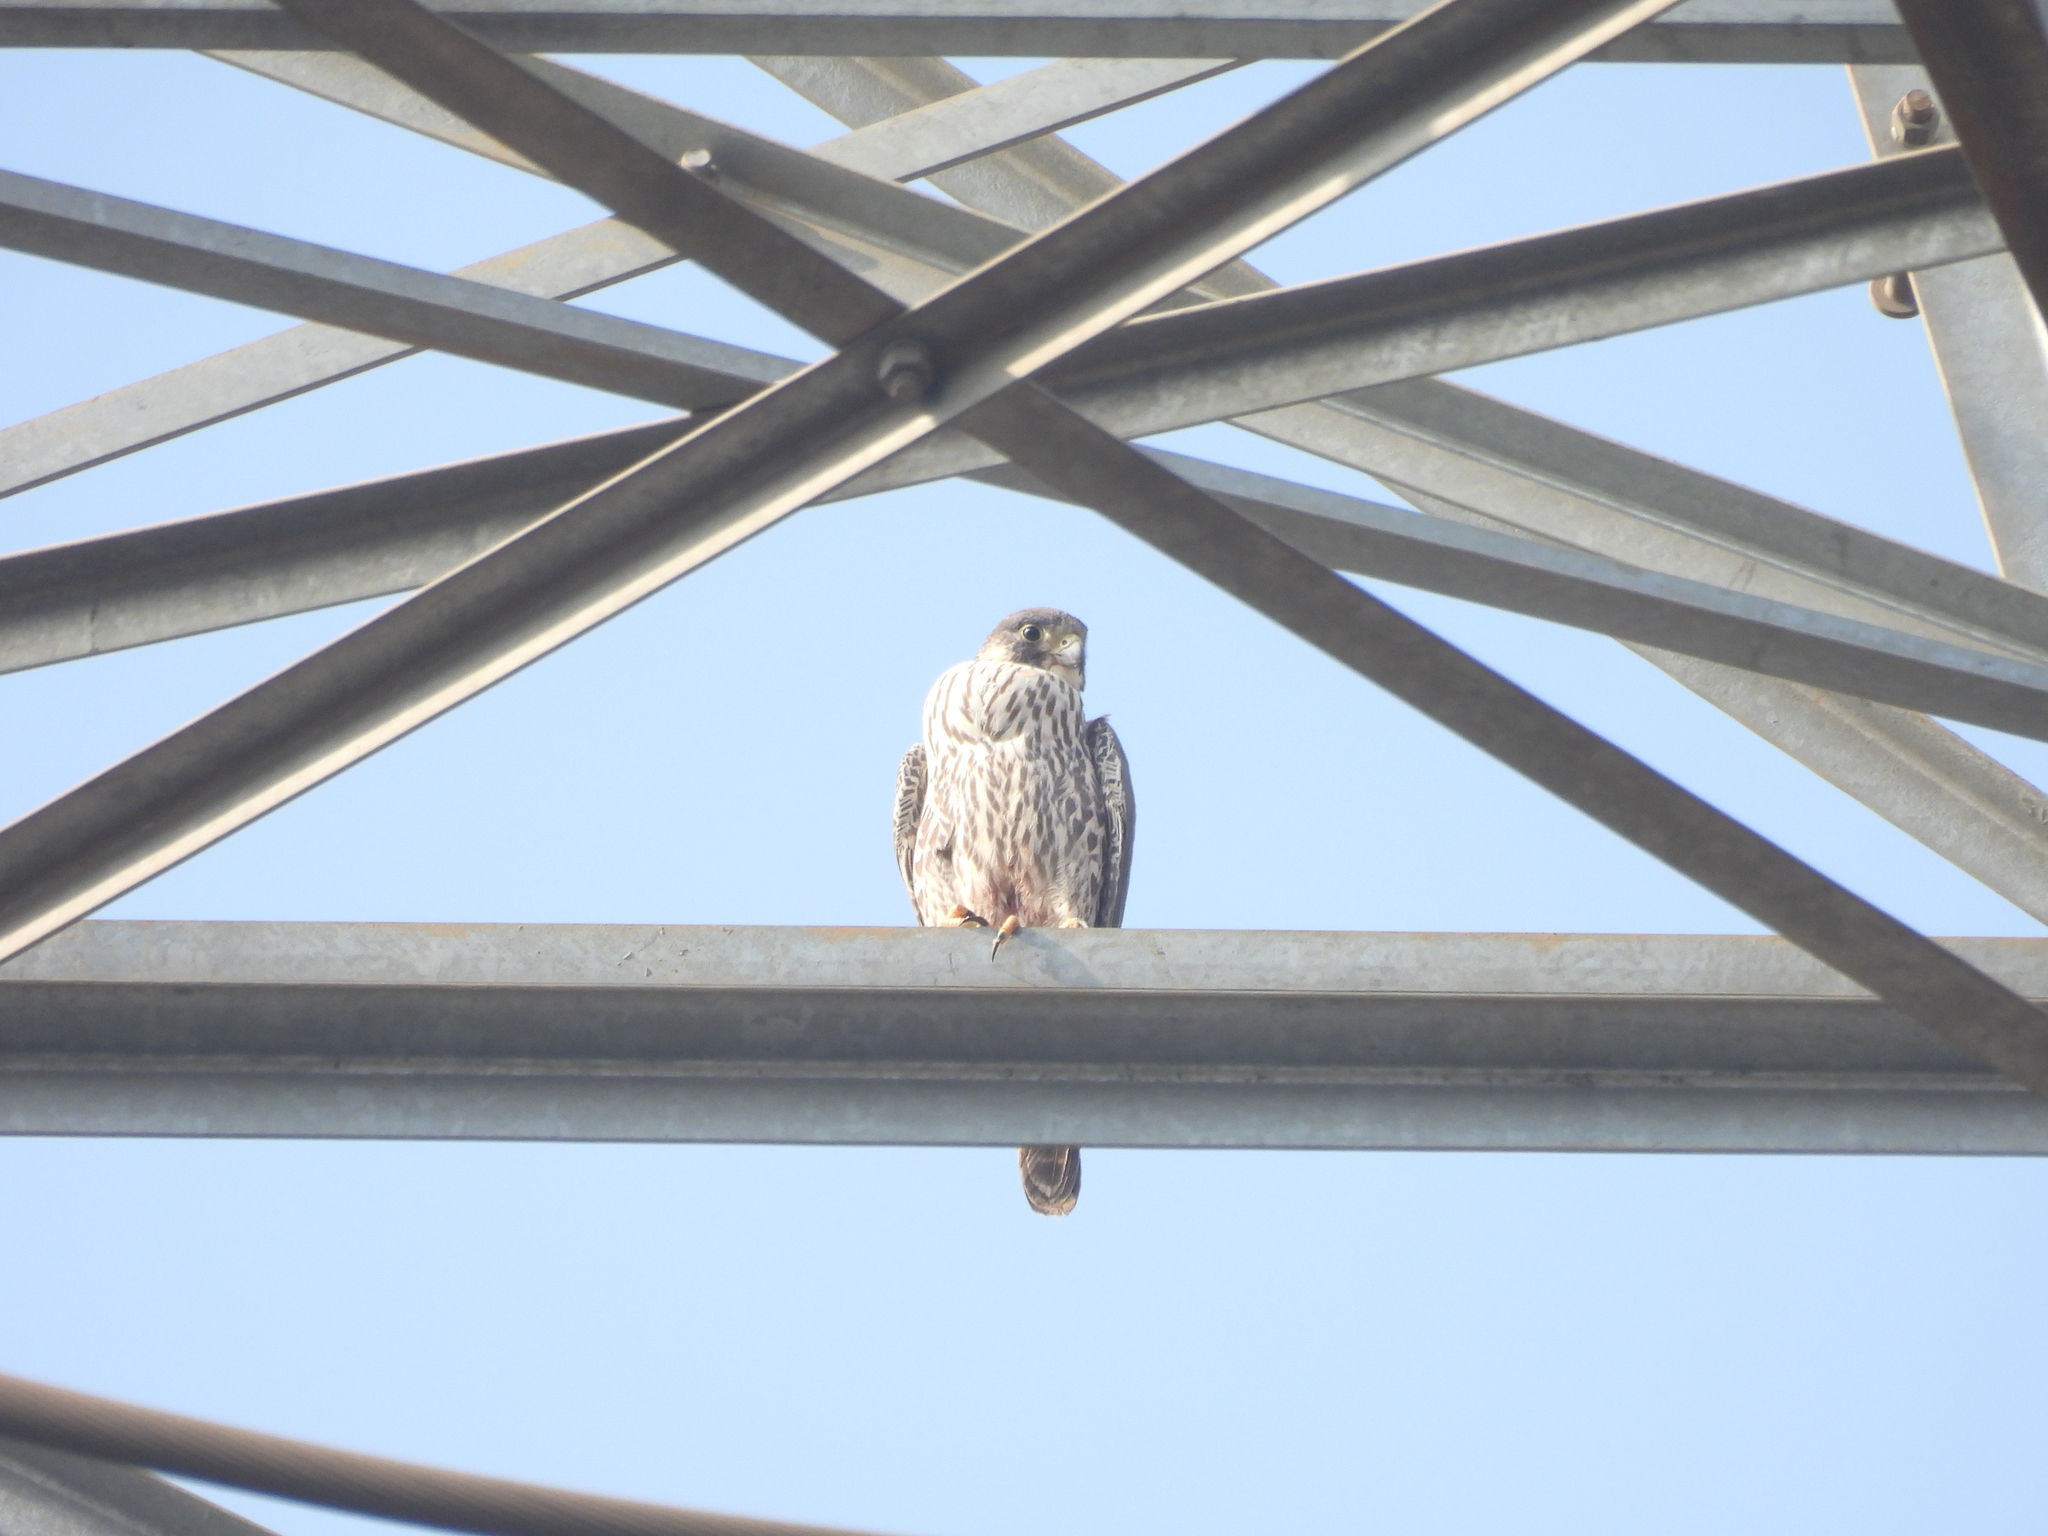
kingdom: Animalia
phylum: Chordata
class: Aves
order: Falconiformes
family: Falconidae
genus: Falco
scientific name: Falco peregrinus
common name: Peregrine falcon
